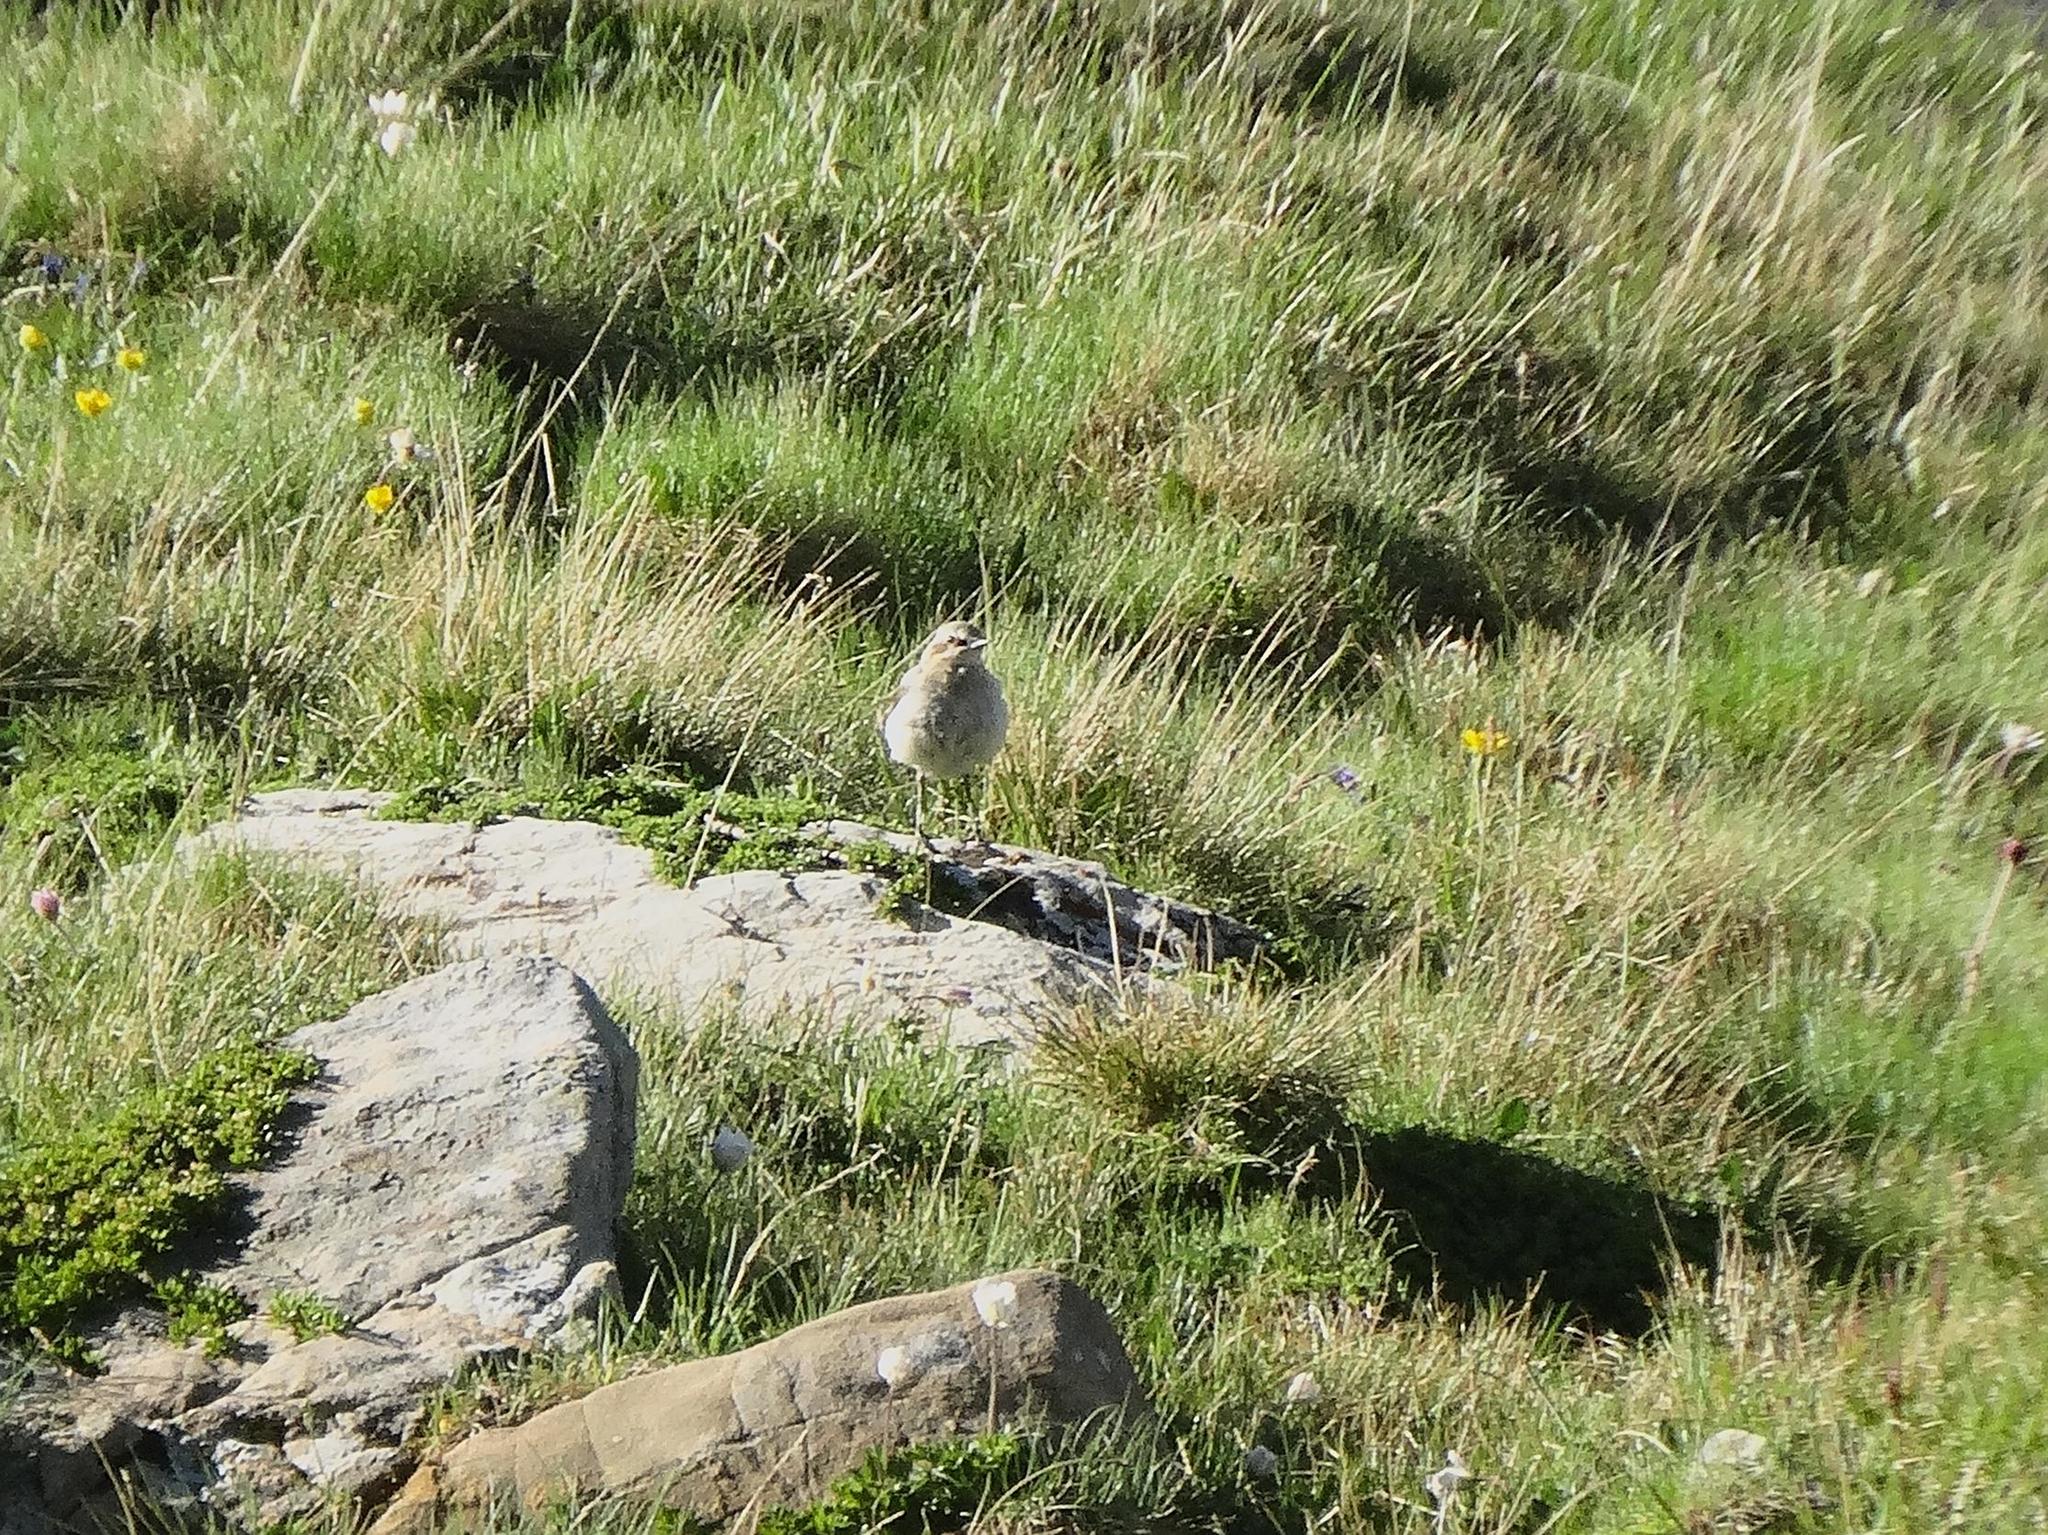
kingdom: Animalia
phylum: Chordata
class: Aves
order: Passeriformes
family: Muscicapidae
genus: Oenanthe
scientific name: Oenanthe oenanthe
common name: Northern wheatear
